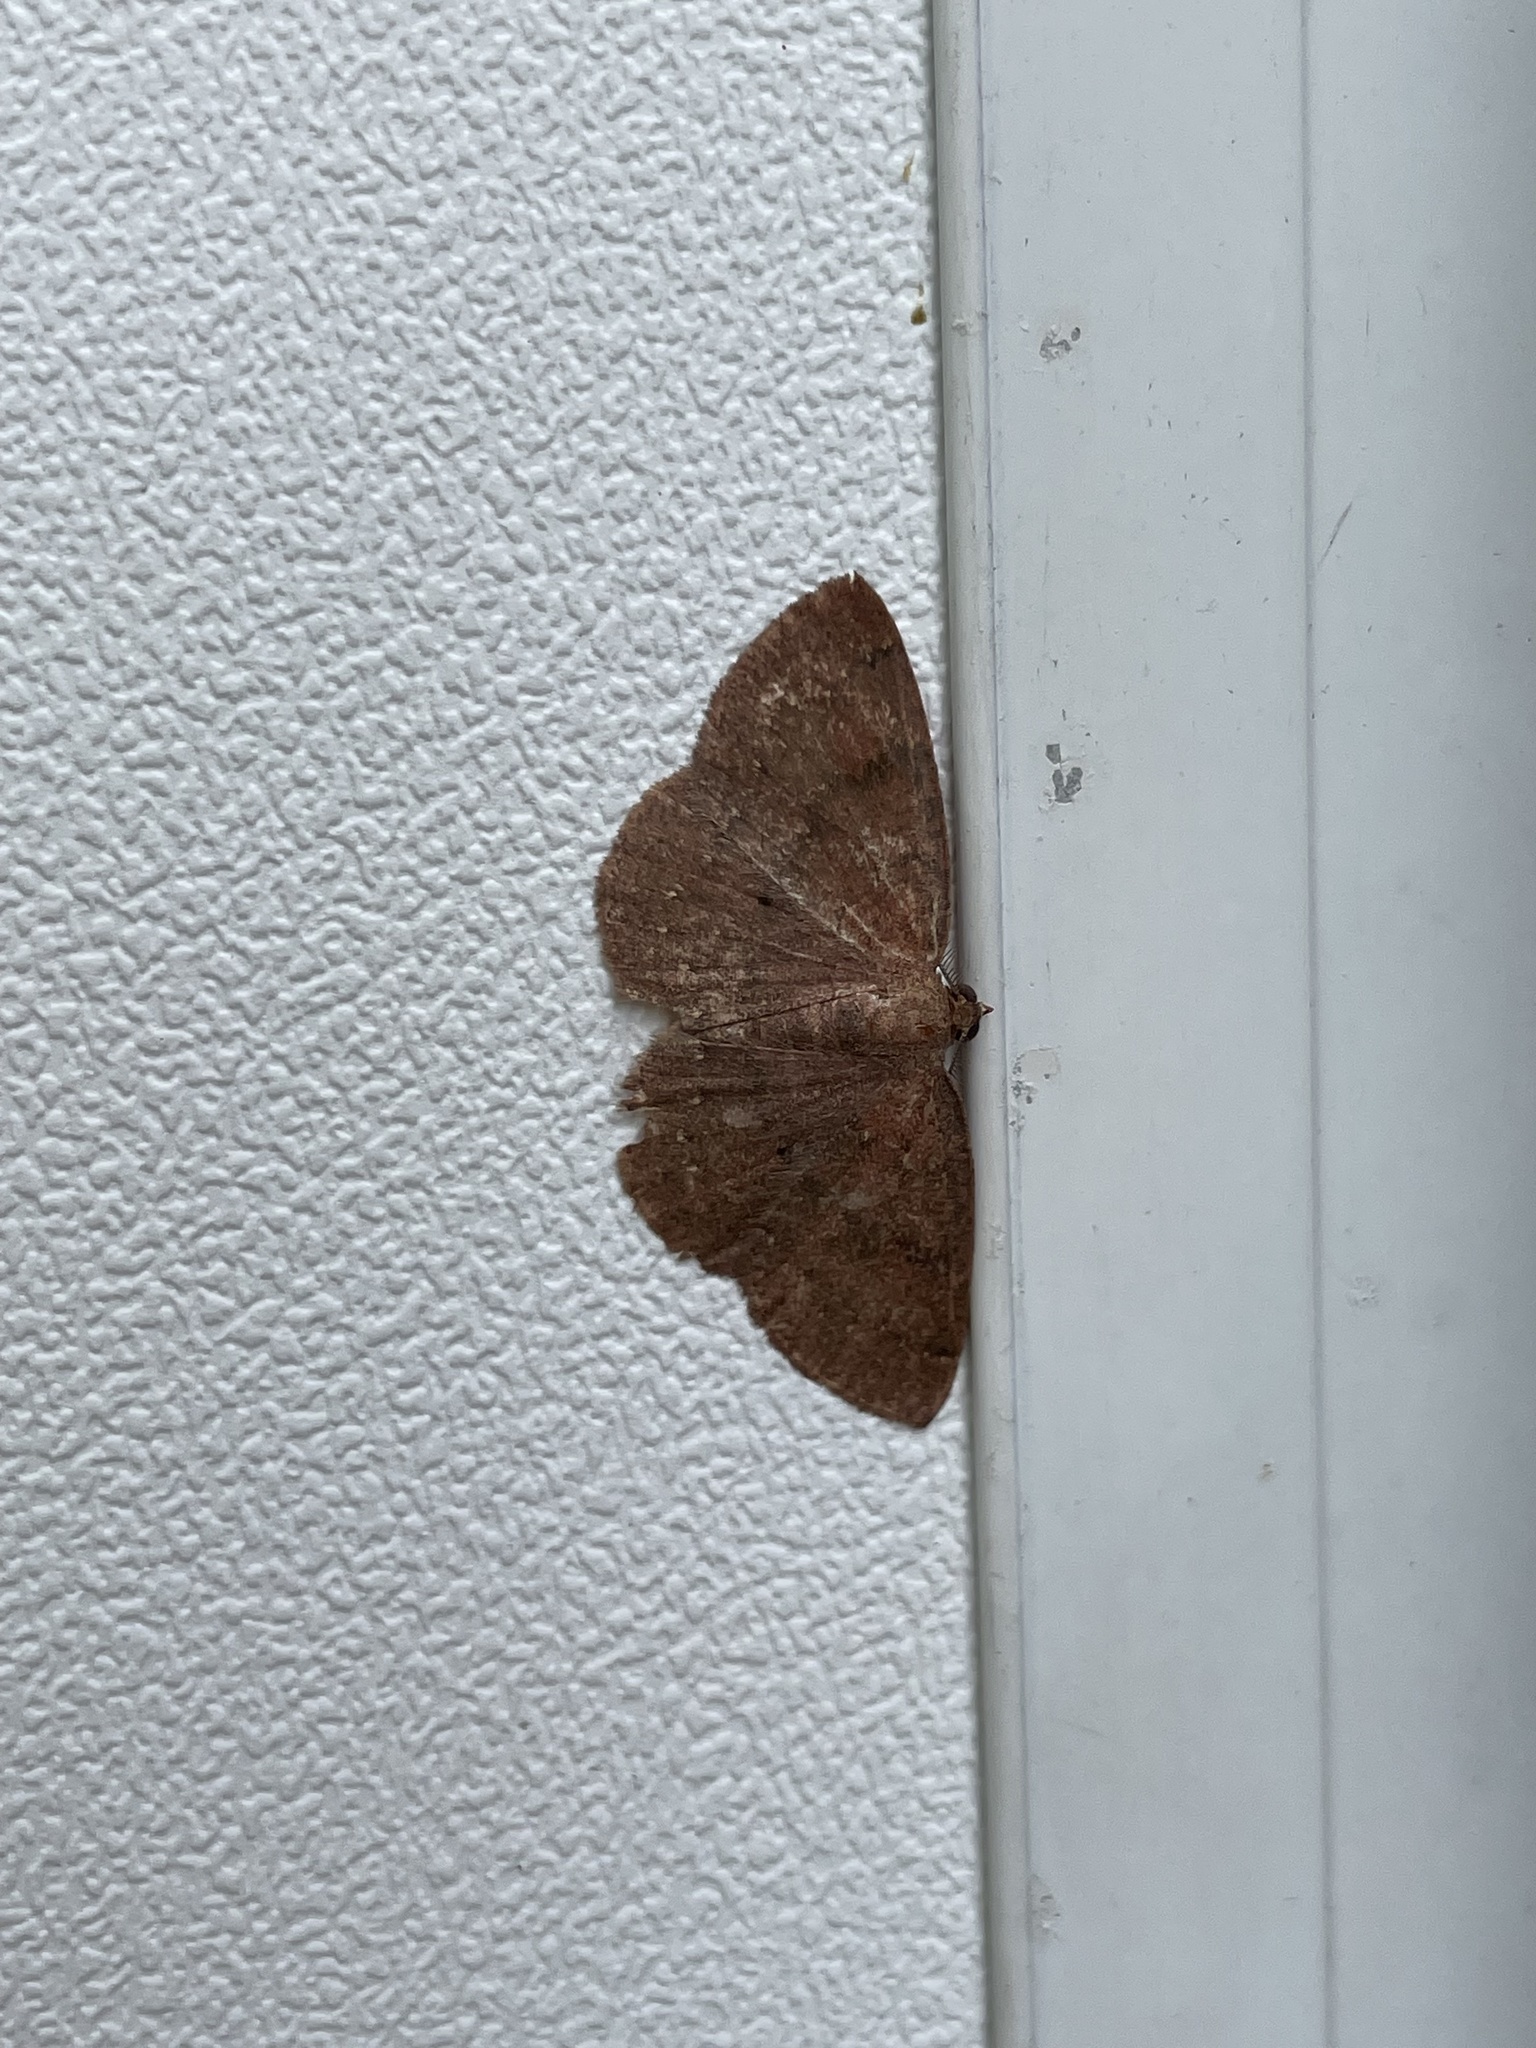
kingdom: Animalia
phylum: Arthropoda
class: Insecta
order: Lepidoptera
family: Geometridae
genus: Ilexia
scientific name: Ilexia intractata
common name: Black-dotted ruddy moth
